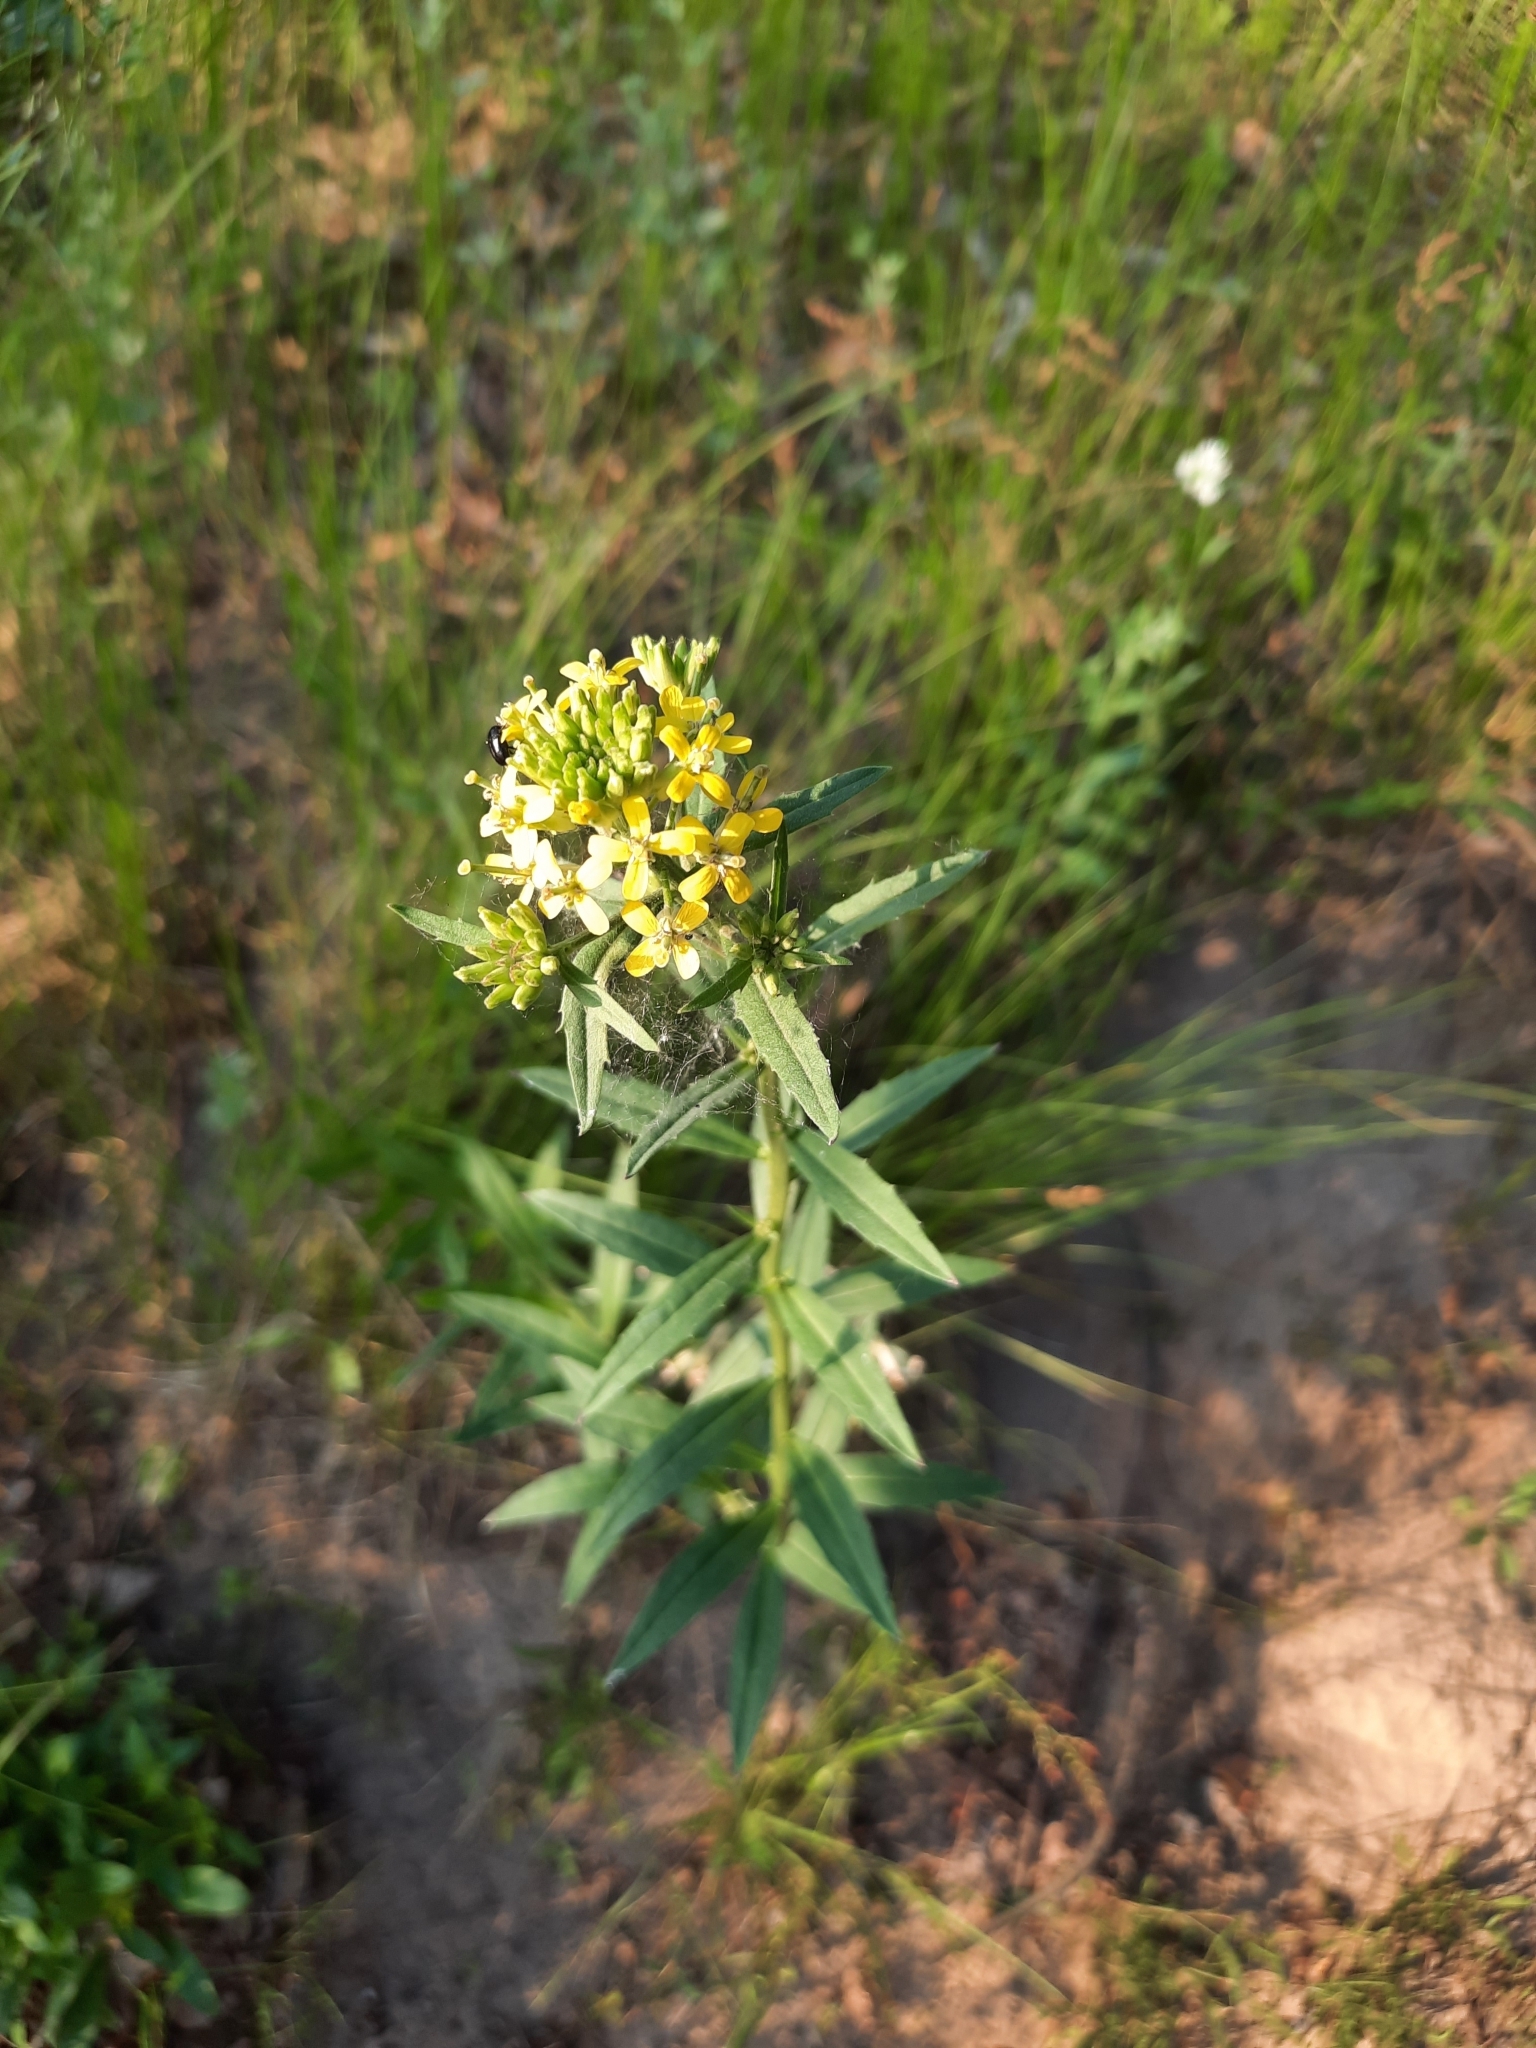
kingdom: Plantae
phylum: Tracheophyta
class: Magnoliopsida
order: Brassicales
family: Brassicaceae
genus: Erysimum
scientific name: Erysimum hieraciifolium
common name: European wallflower
